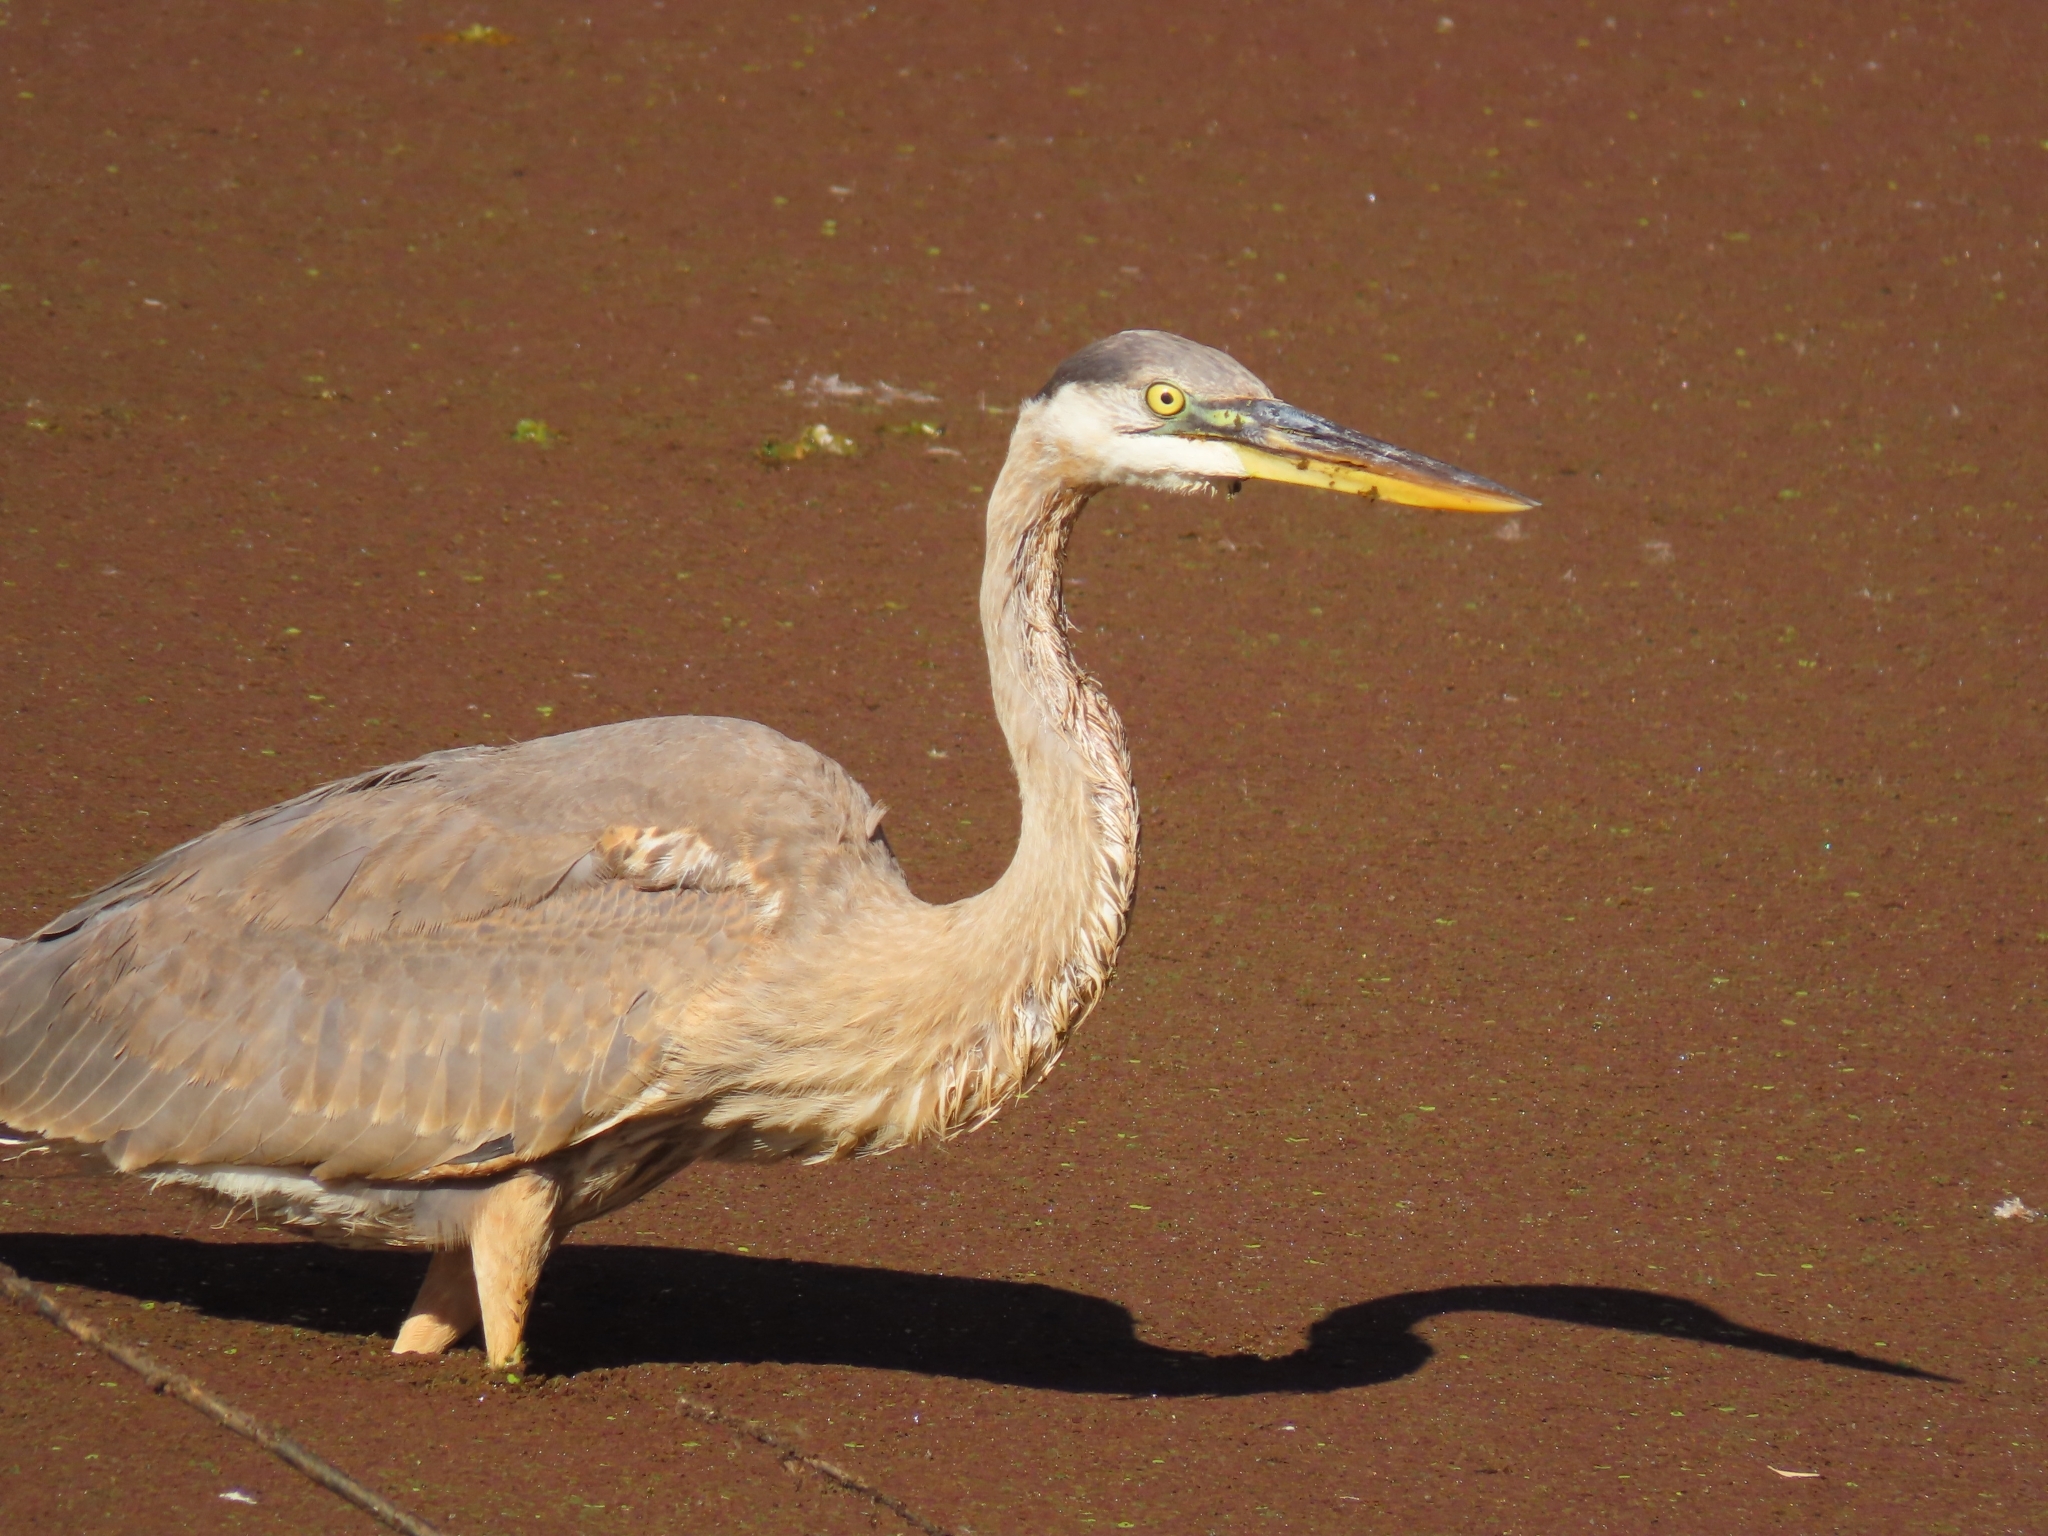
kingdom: Animalia
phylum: Chordata
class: Aves
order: Pelecaniformes
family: Ardeidae
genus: Ardea
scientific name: Ardea herodias
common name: Great blue heron
